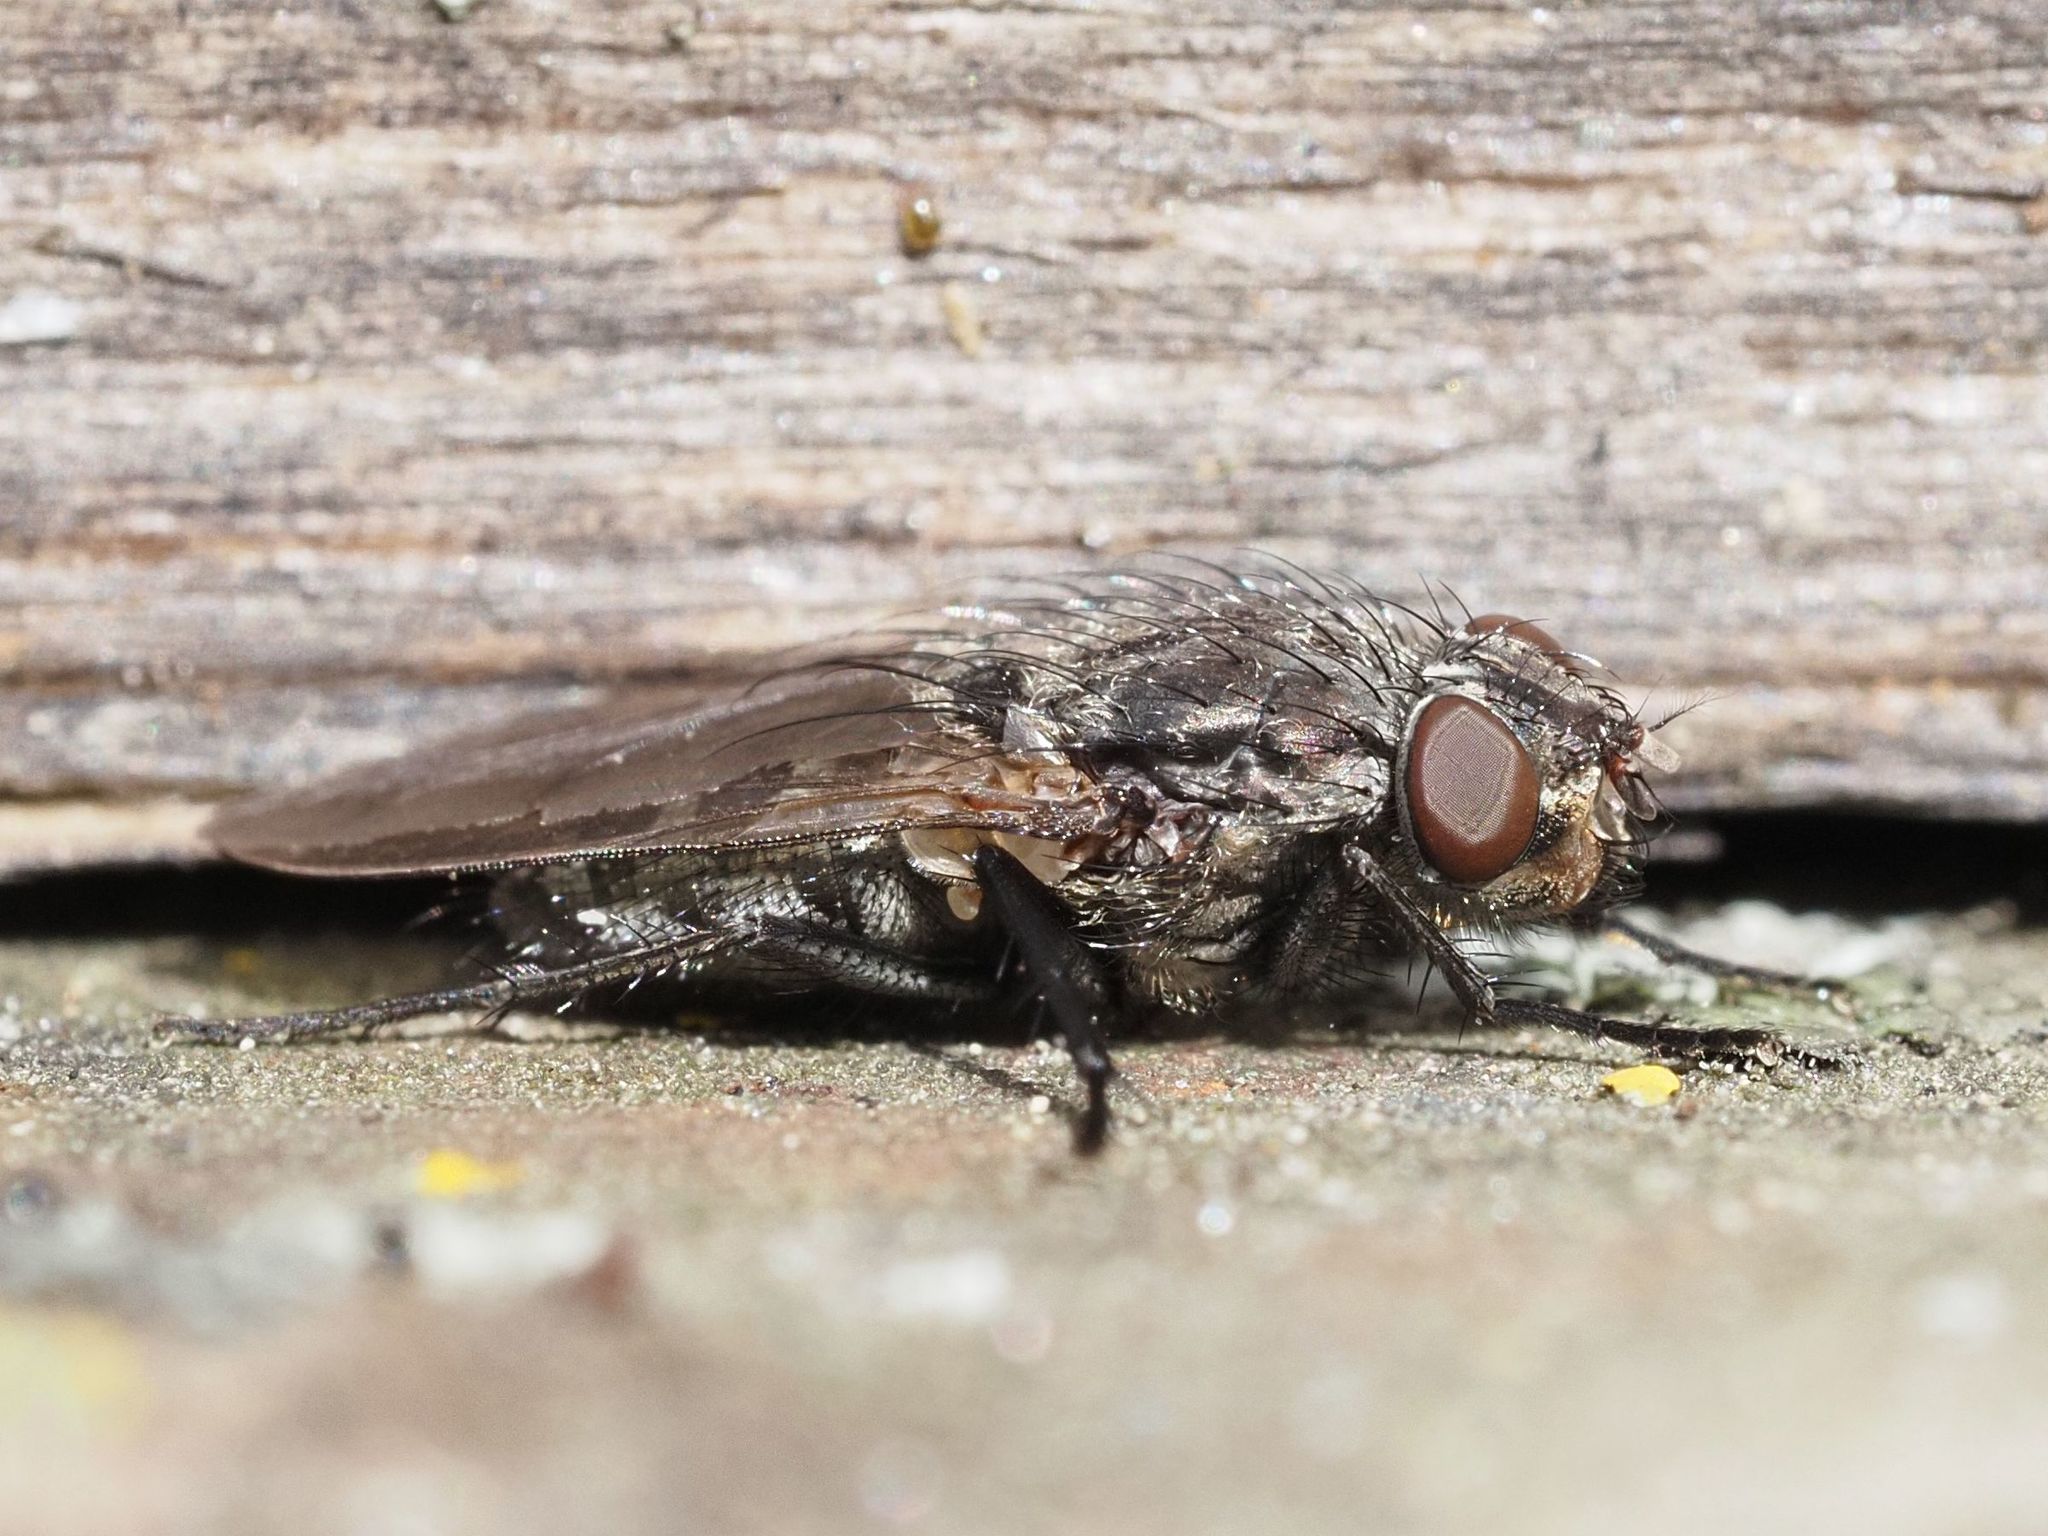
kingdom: Animalia
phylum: Arthropoda
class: Insecta
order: Diptera
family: Polleniidae
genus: Pollenia
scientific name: Pollenia vagabunda
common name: Vagabund cluster fly
